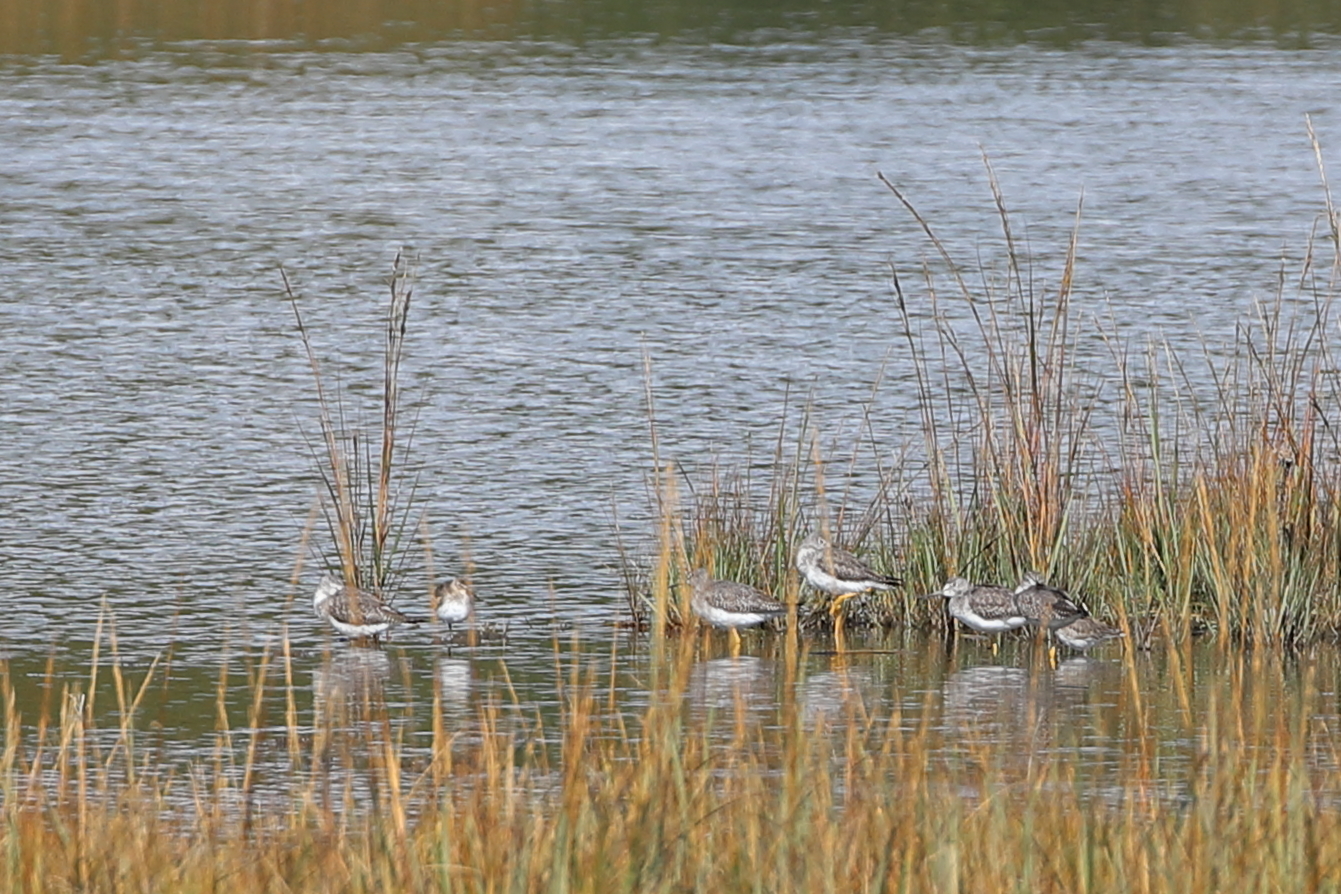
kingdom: Animalia
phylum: Chordata
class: Aves
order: Charadriiformes
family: Scolopacidae
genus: Tringa
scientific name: Tringa melanoleuca
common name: Greater yellowlegs
